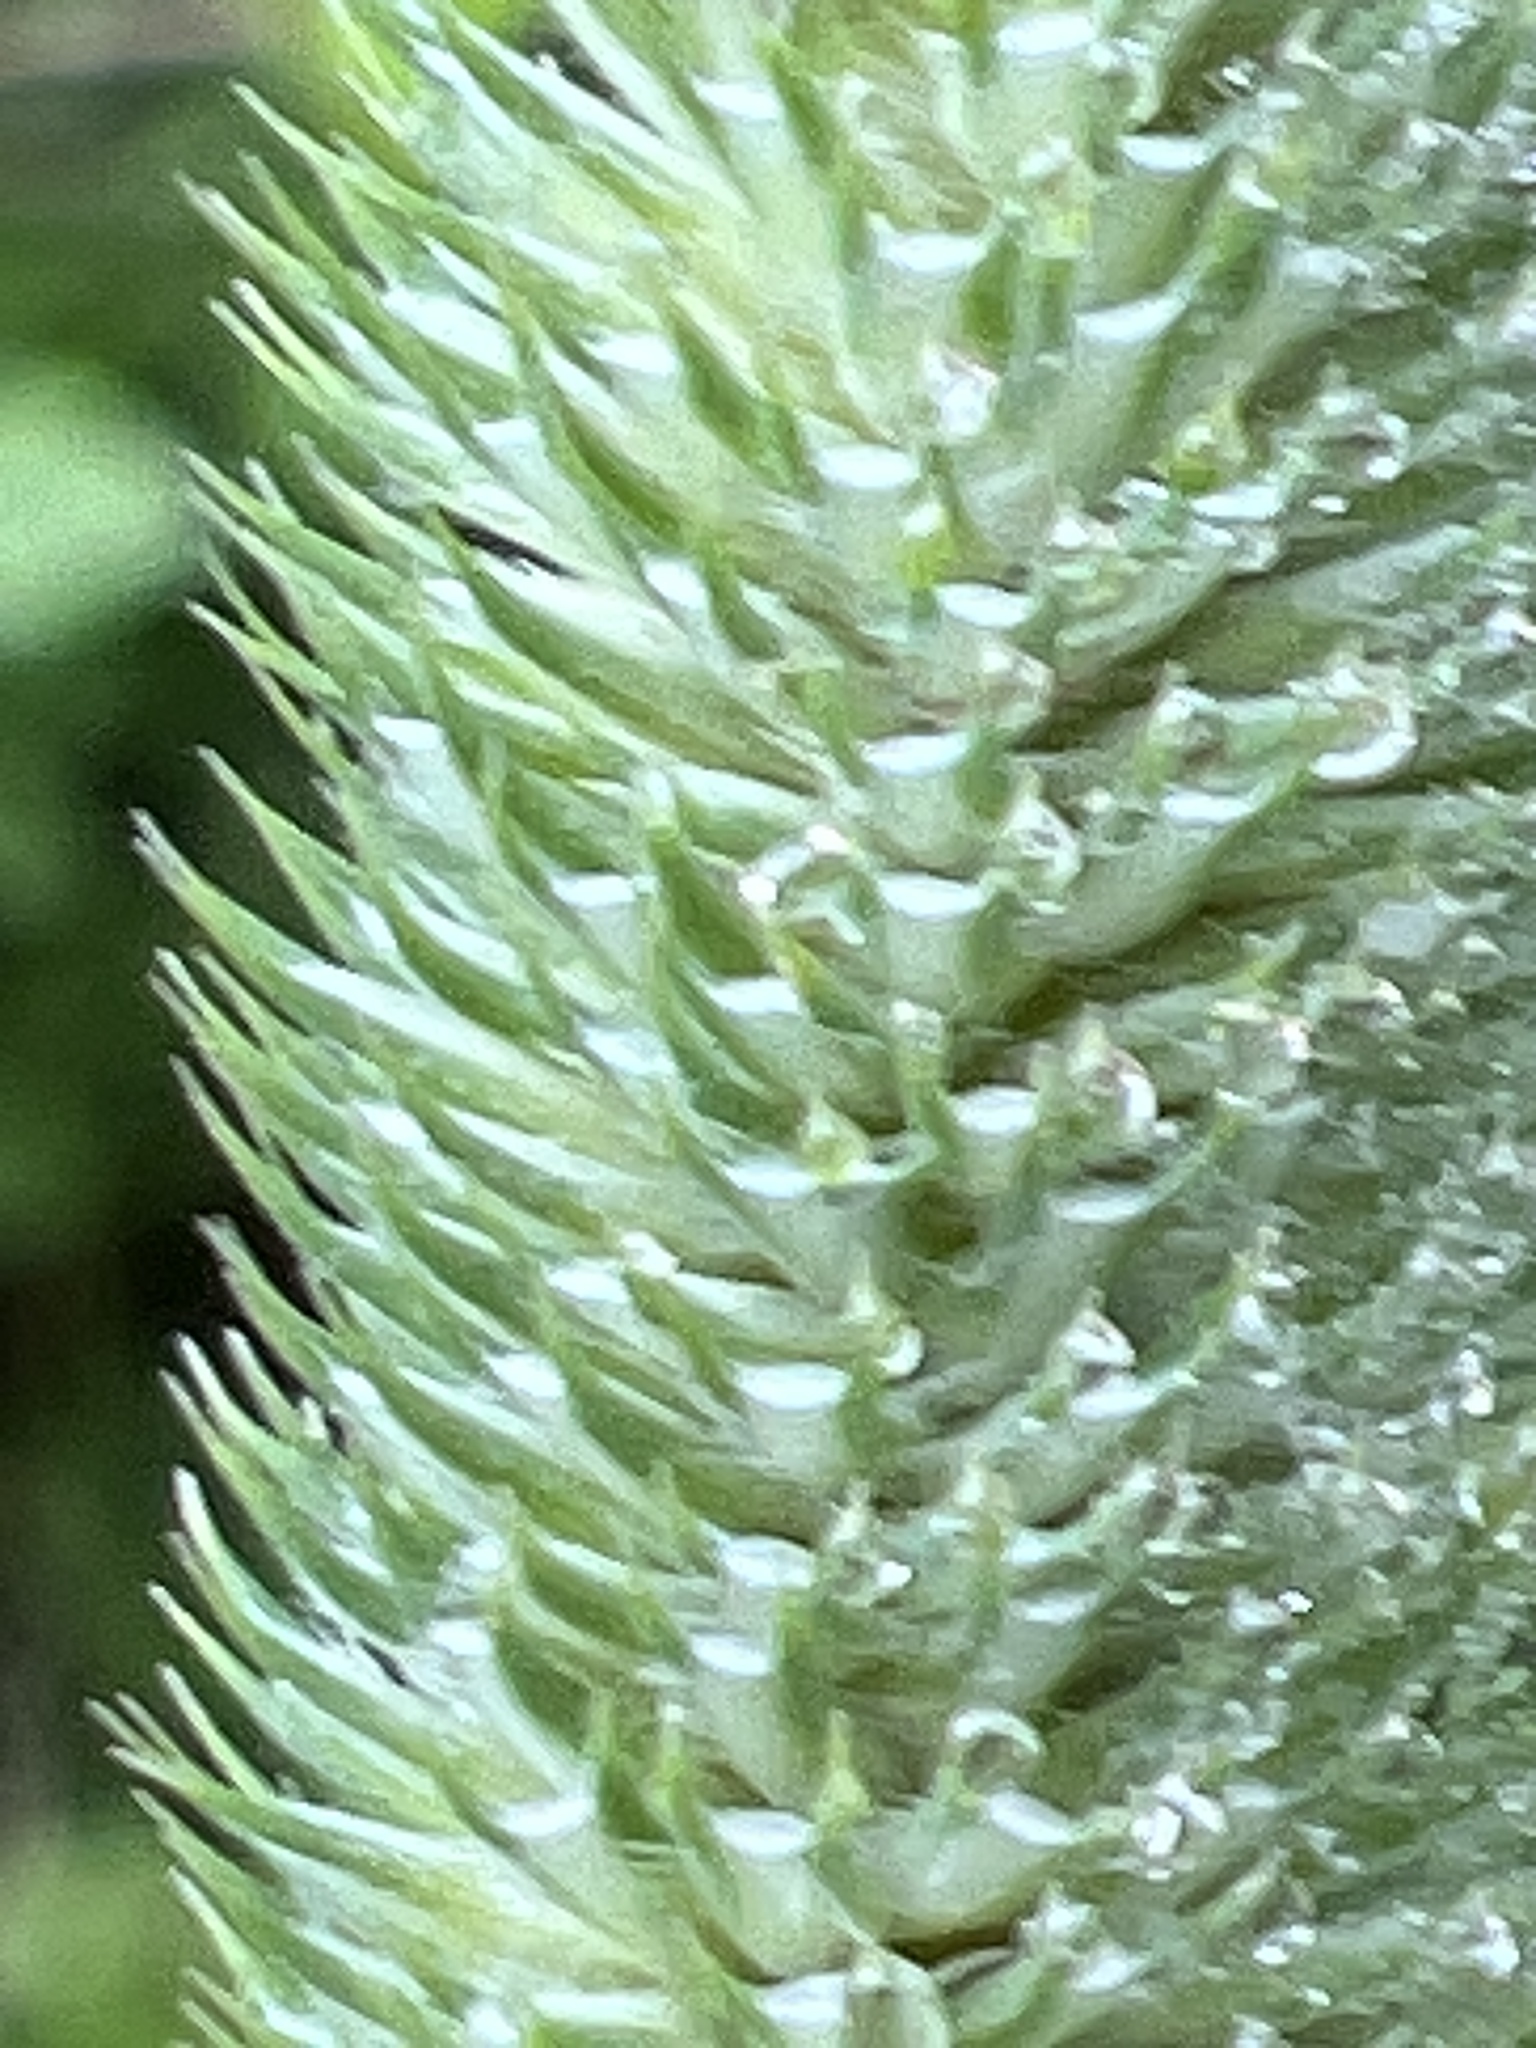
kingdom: Plantae
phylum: Tracheophyta
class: Liliopsida
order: Poales
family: Poaceae
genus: Phleum
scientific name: Phleum pratense
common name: Timothy grass
